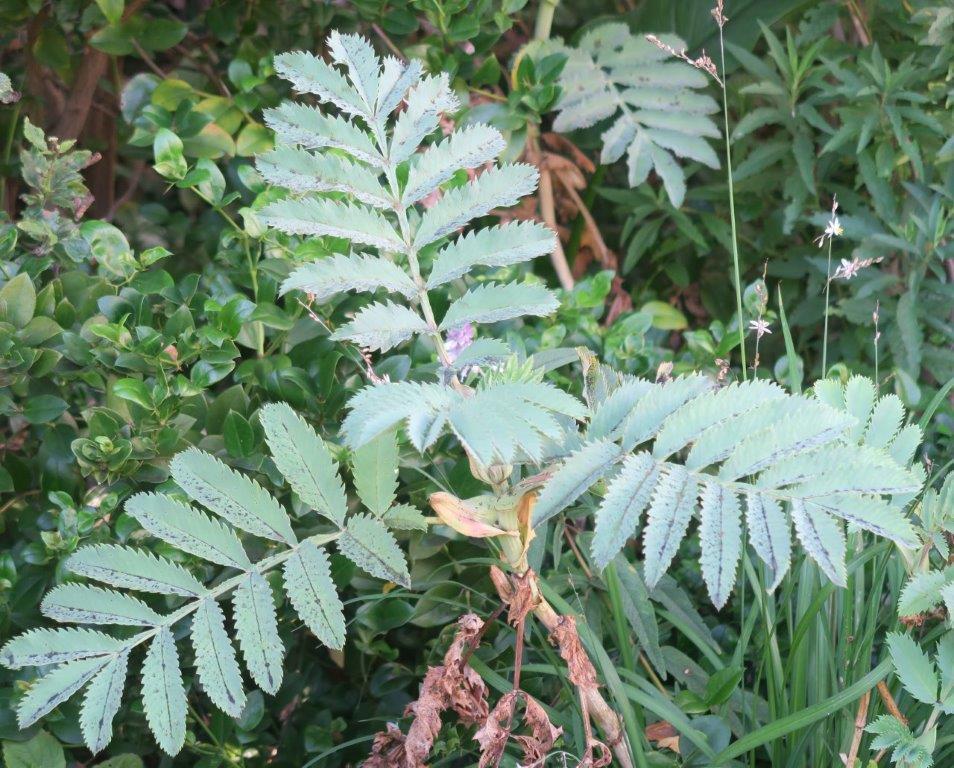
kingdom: Plantae
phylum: Tracheophyta
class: Magnoliopsida
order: Geraniales
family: Melianthaceae
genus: Melianthus
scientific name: Melianthus major
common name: Honey-flower
